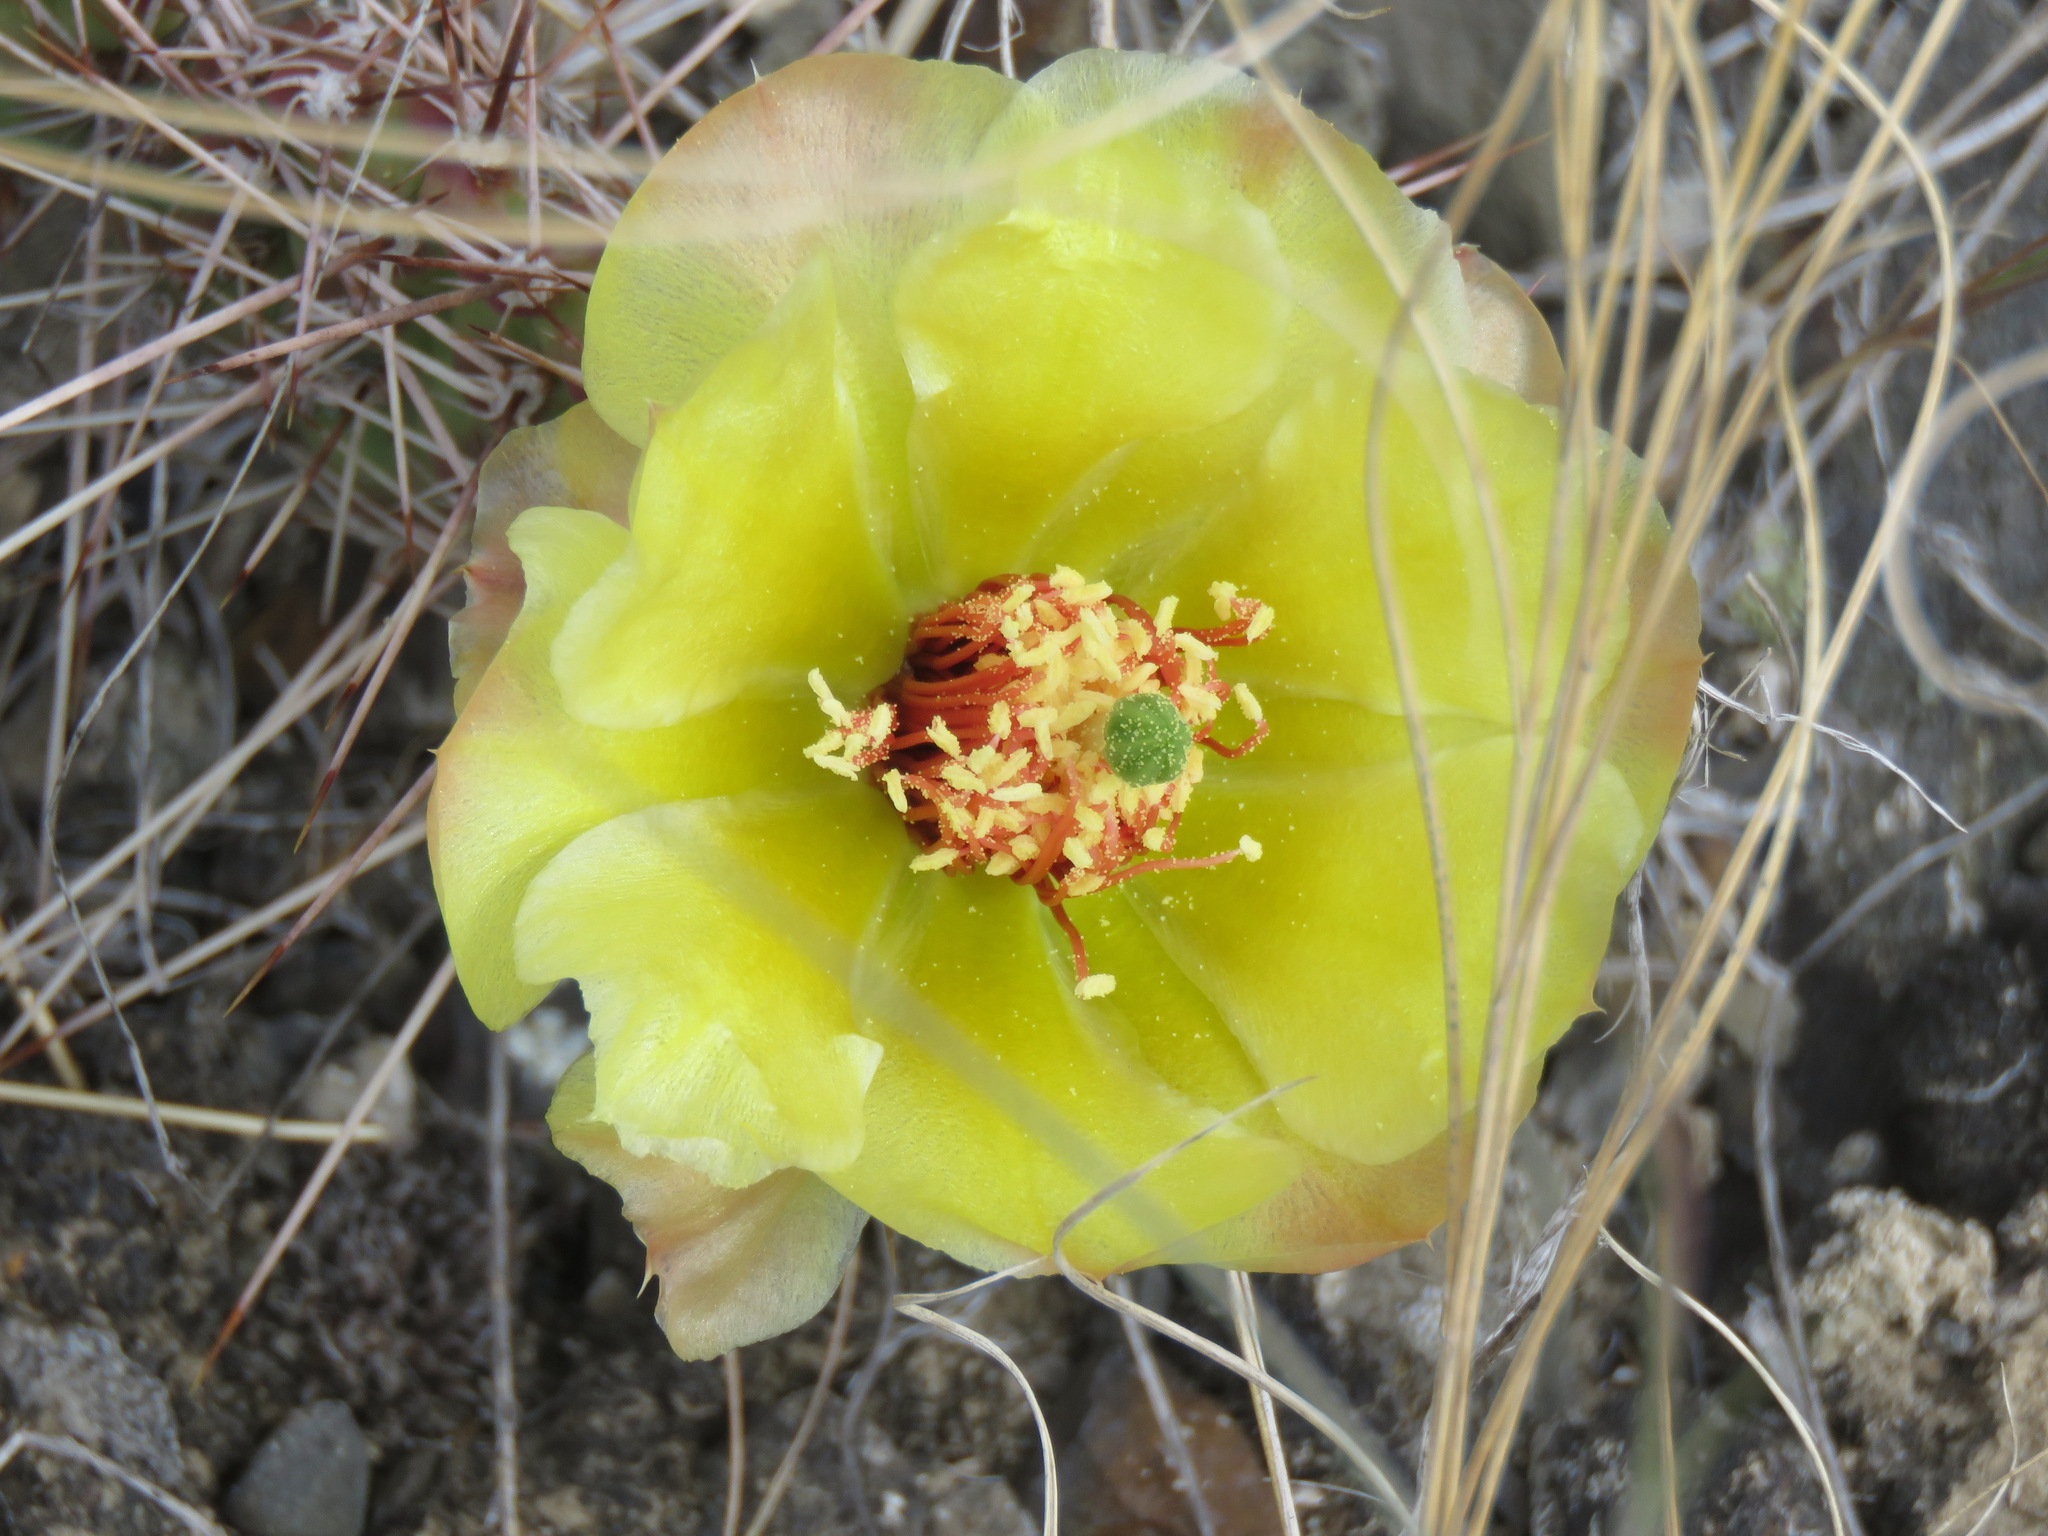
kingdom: Plantae
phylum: Tracheophyta
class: Magnoliopsida
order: Caryophyllales
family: Cactaceae
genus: Opuntia
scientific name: Opuntia fragilis
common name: Brittle cactus
